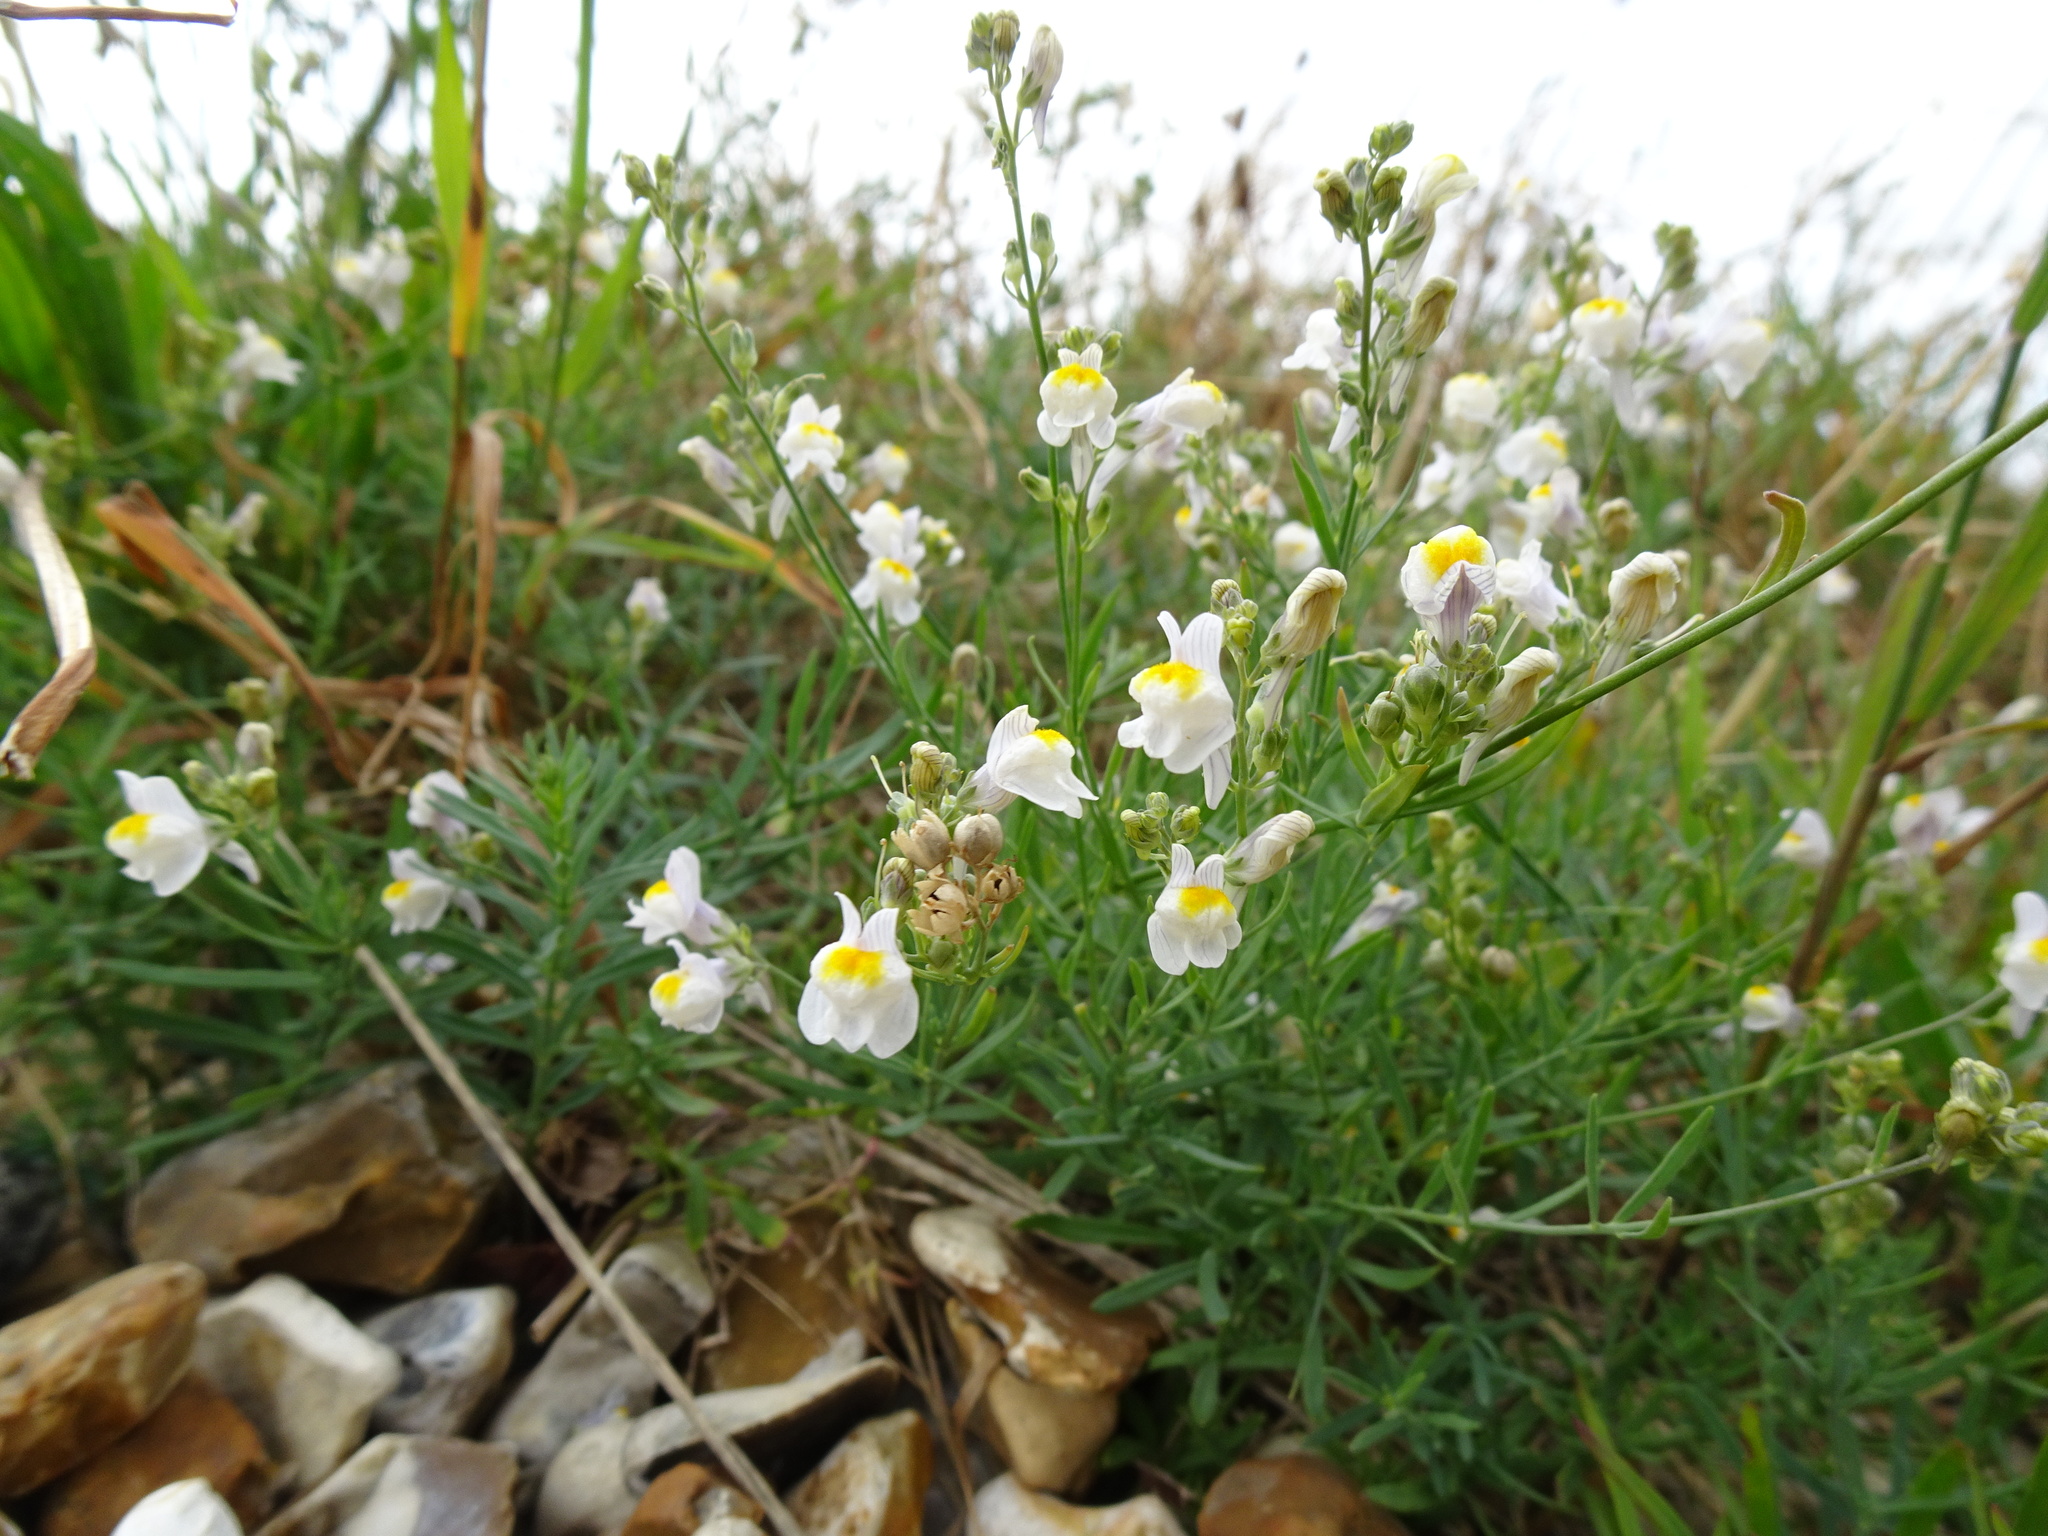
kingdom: Plantae
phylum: Tracheophyta
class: Magnoliopsida
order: Lamiales
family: Plantaginaceae
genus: Linaria
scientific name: Linaria repens
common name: Pale toadflax
